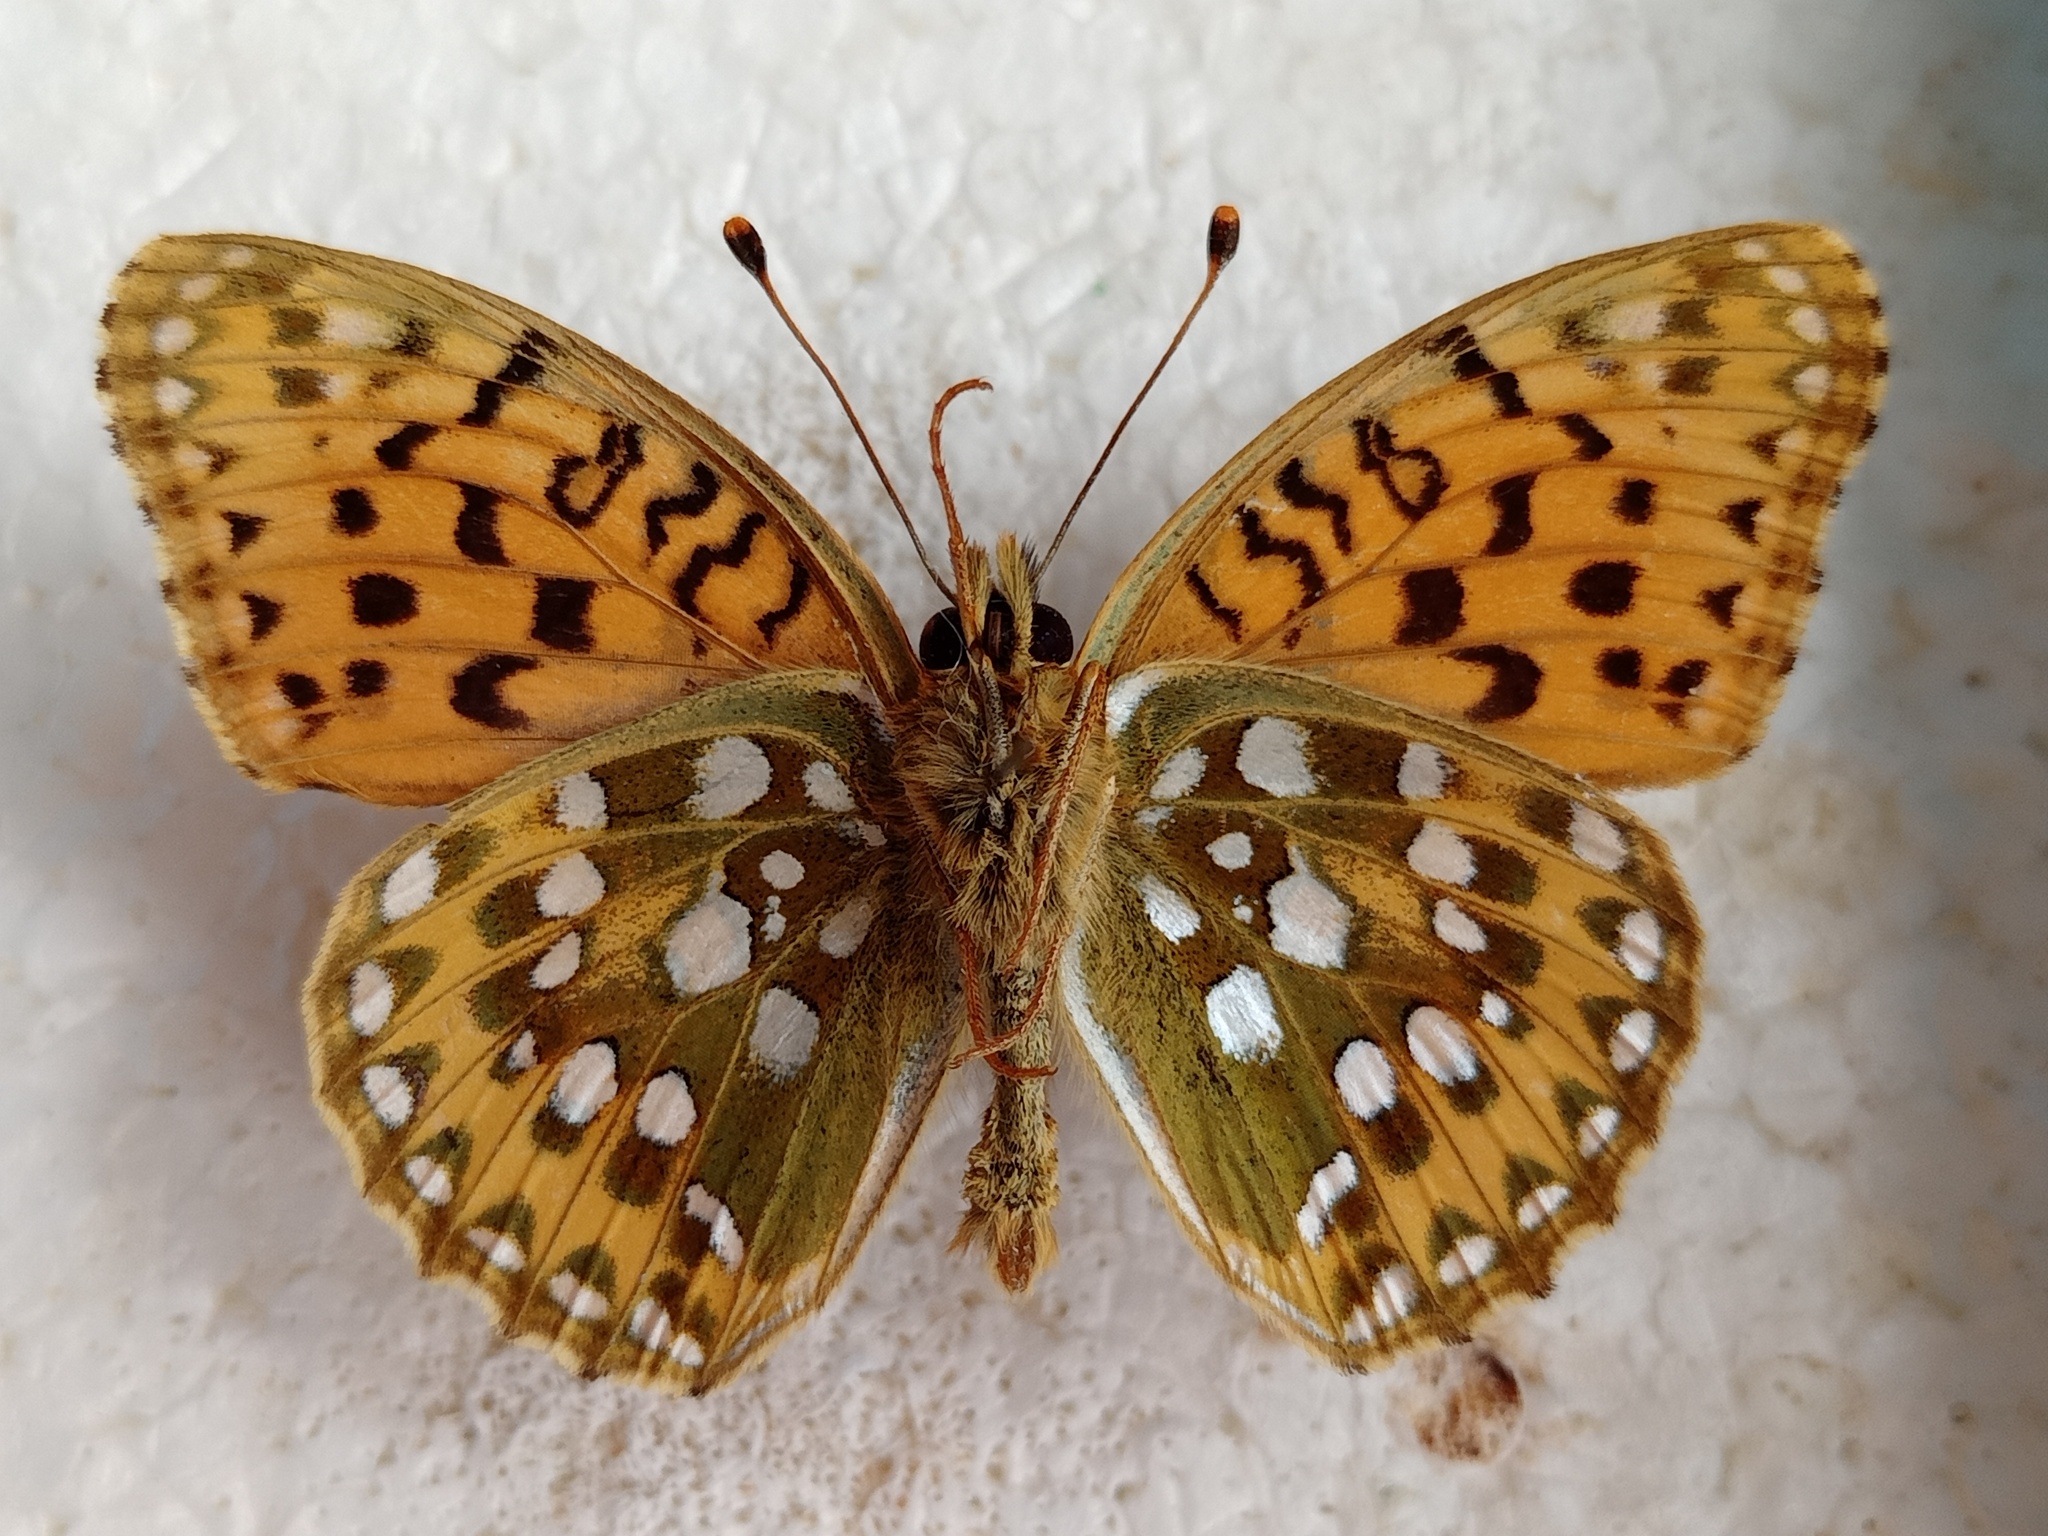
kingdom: Animalia
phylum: Arthropoda
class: Insecta
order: Lepidoptera
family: Nymphalidae
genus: Speyeria
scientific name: Speyeria aglaja
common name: Dark green fritillary
